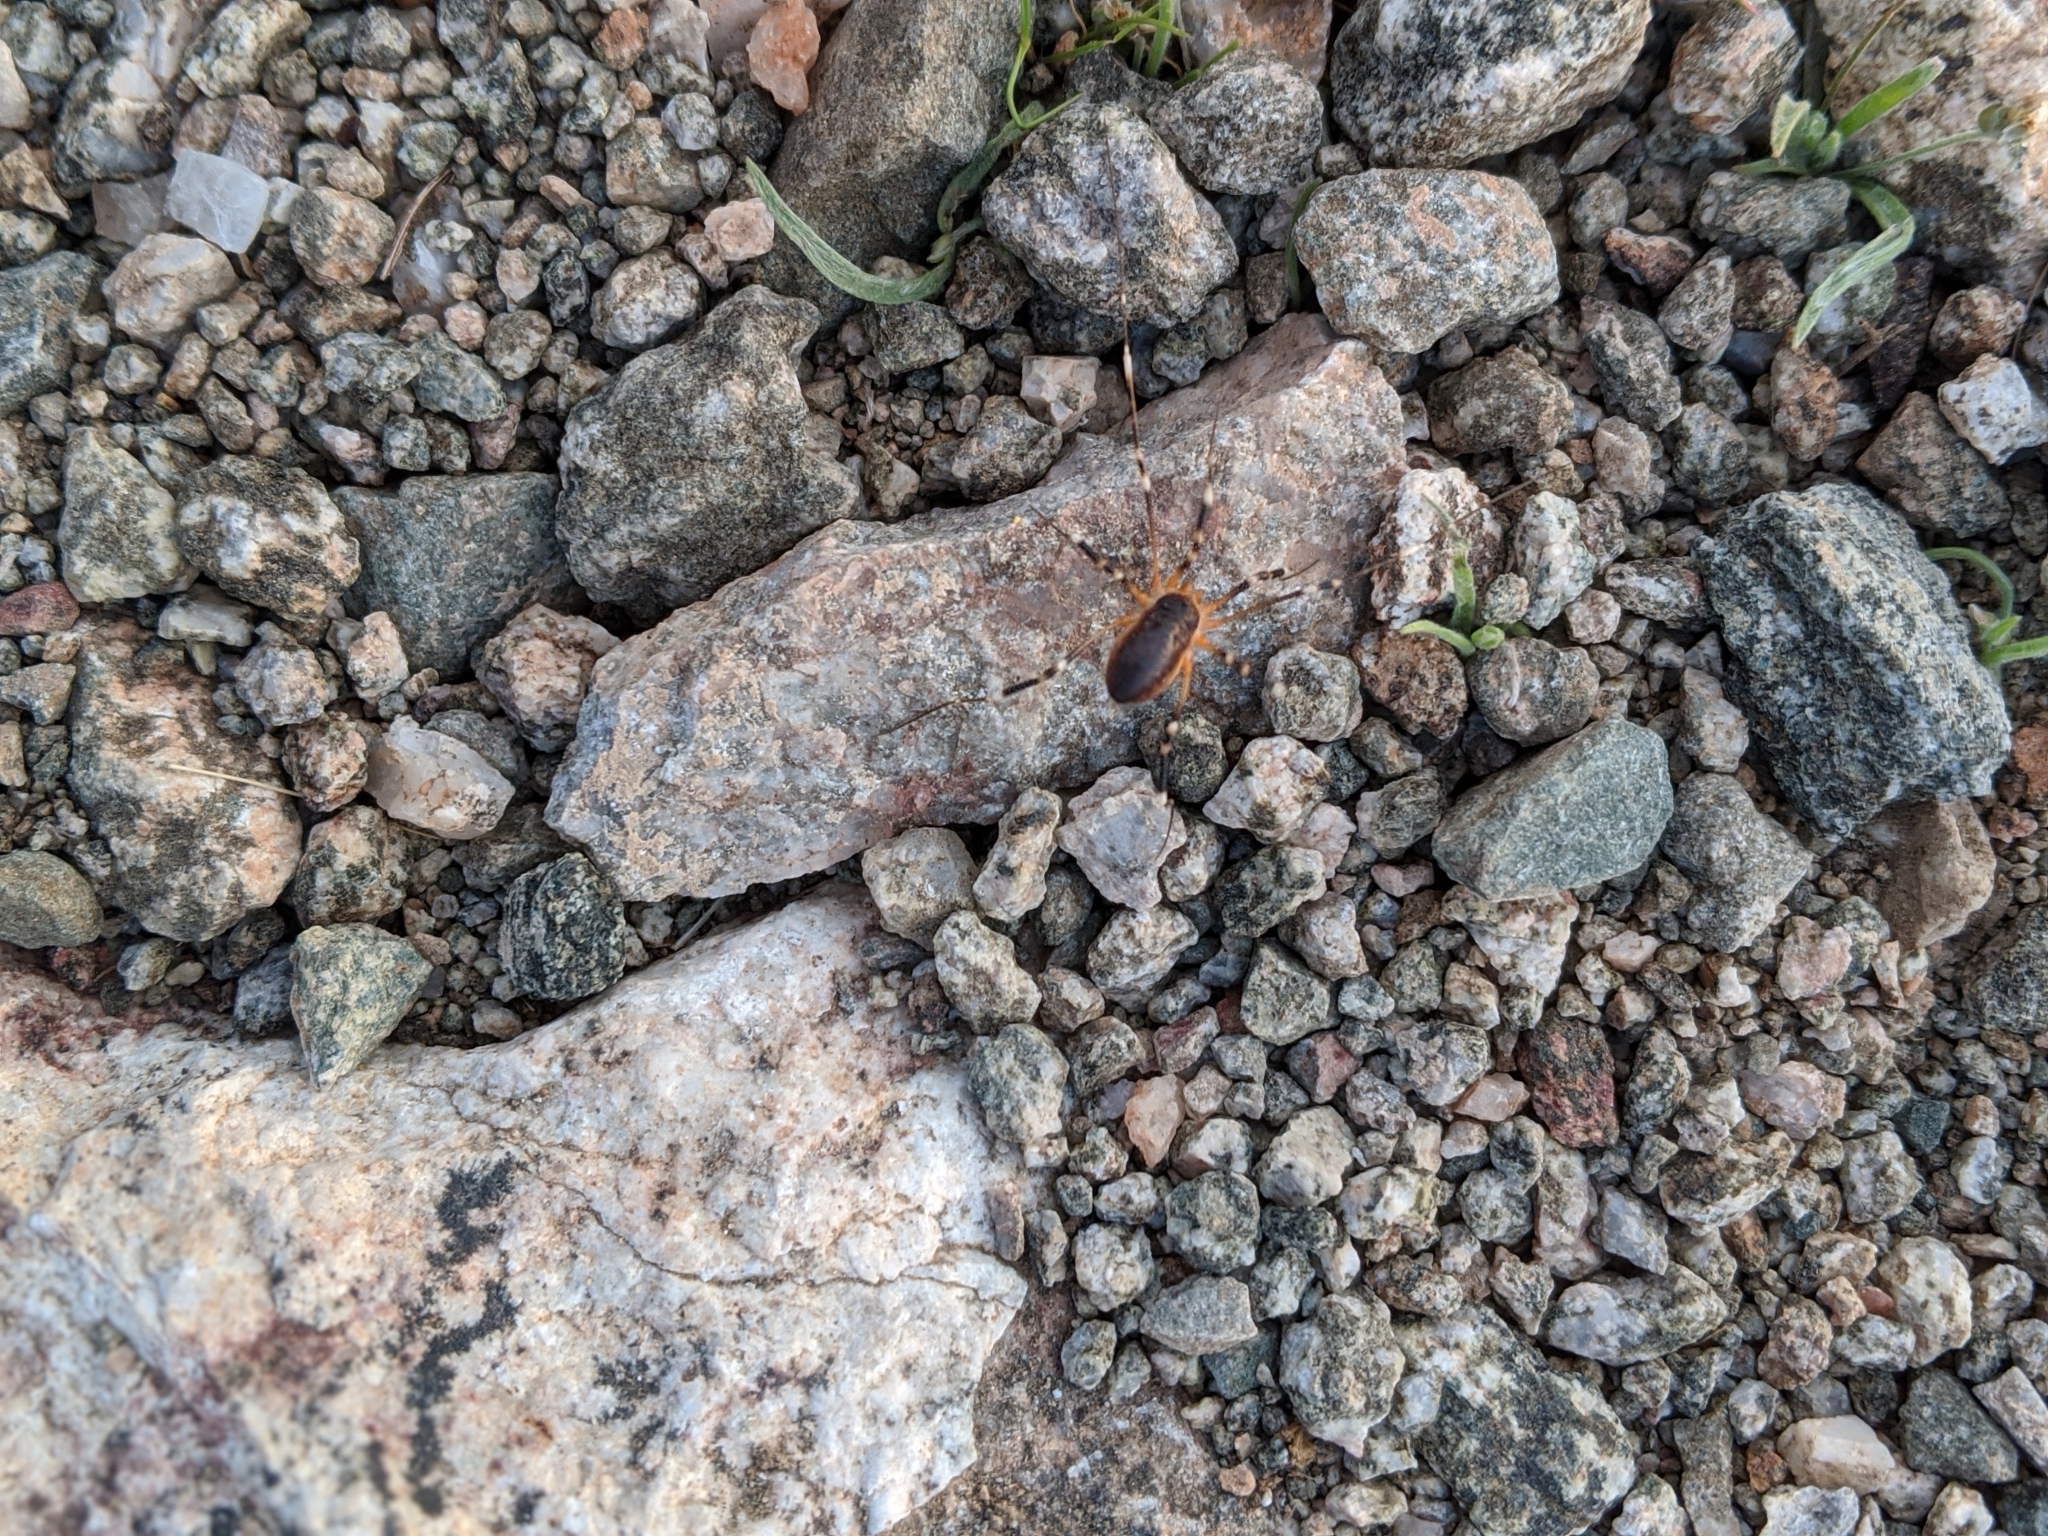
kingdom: Animalia
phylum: Arthropoda
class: Arachnida
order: Opiliones
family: Globipedidae
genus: Eurybunus
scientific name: Eurybunus
